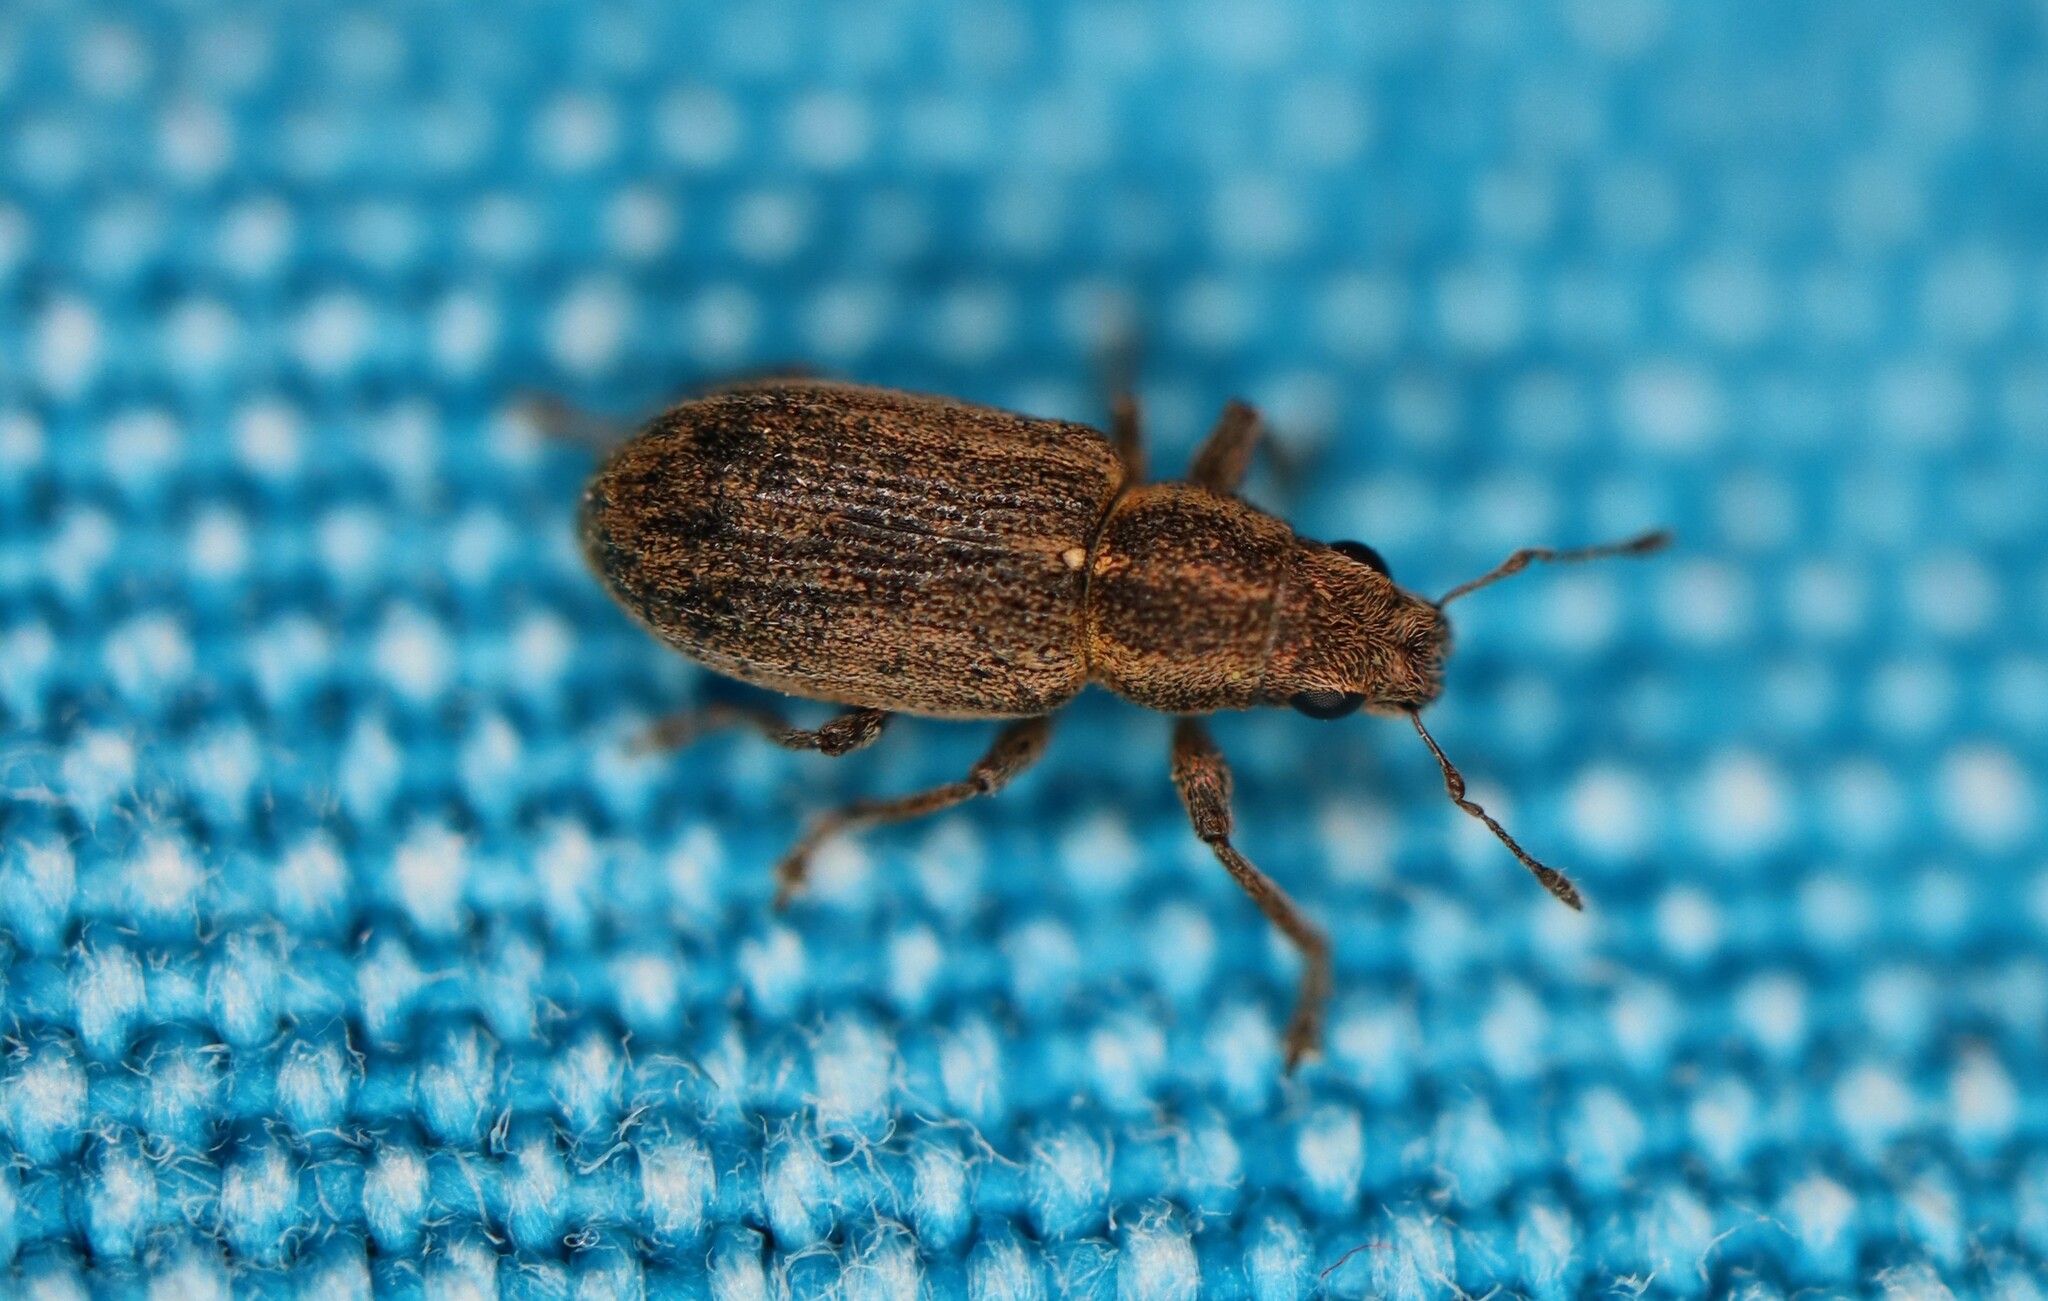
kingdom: Animalia
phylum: Arthropoda
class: Insecta
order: Coleoptera
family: Curculionidae
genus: Sitona
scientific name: Sitona lineatus
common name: Weevil
